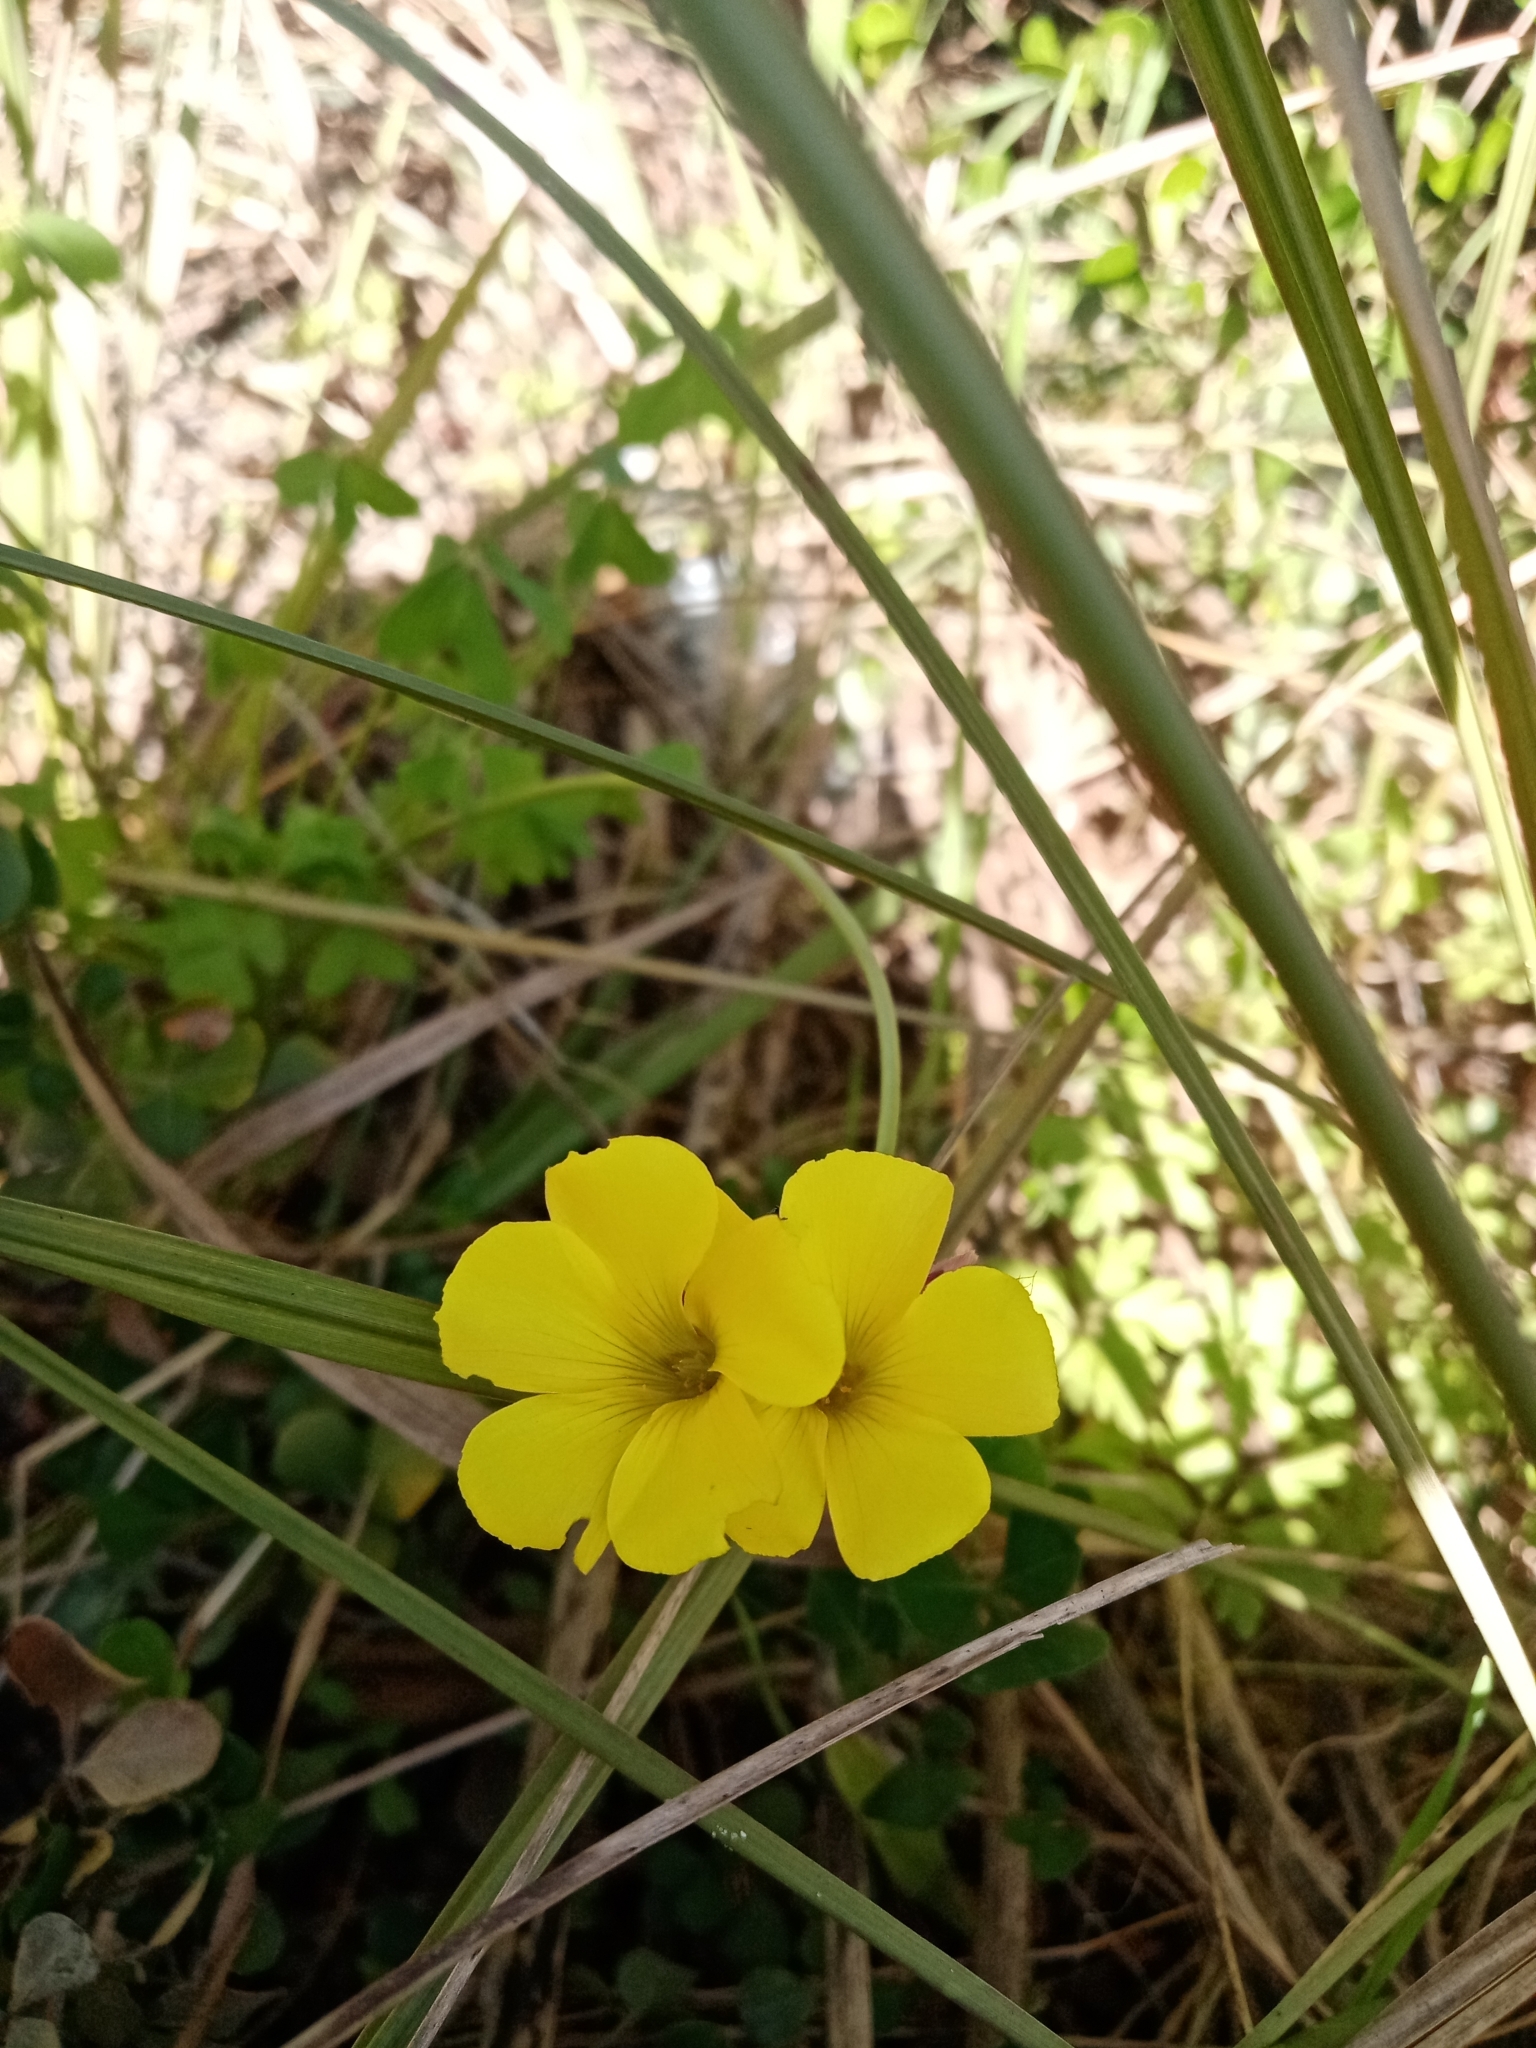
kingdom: Plantae
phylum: Tracheophyta
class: Magnoliopsida
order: Oxalidales
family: Oxalidaceae
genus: Oxalis
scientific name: Oxalis pes-caprae
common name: Bermuda-buttercup
